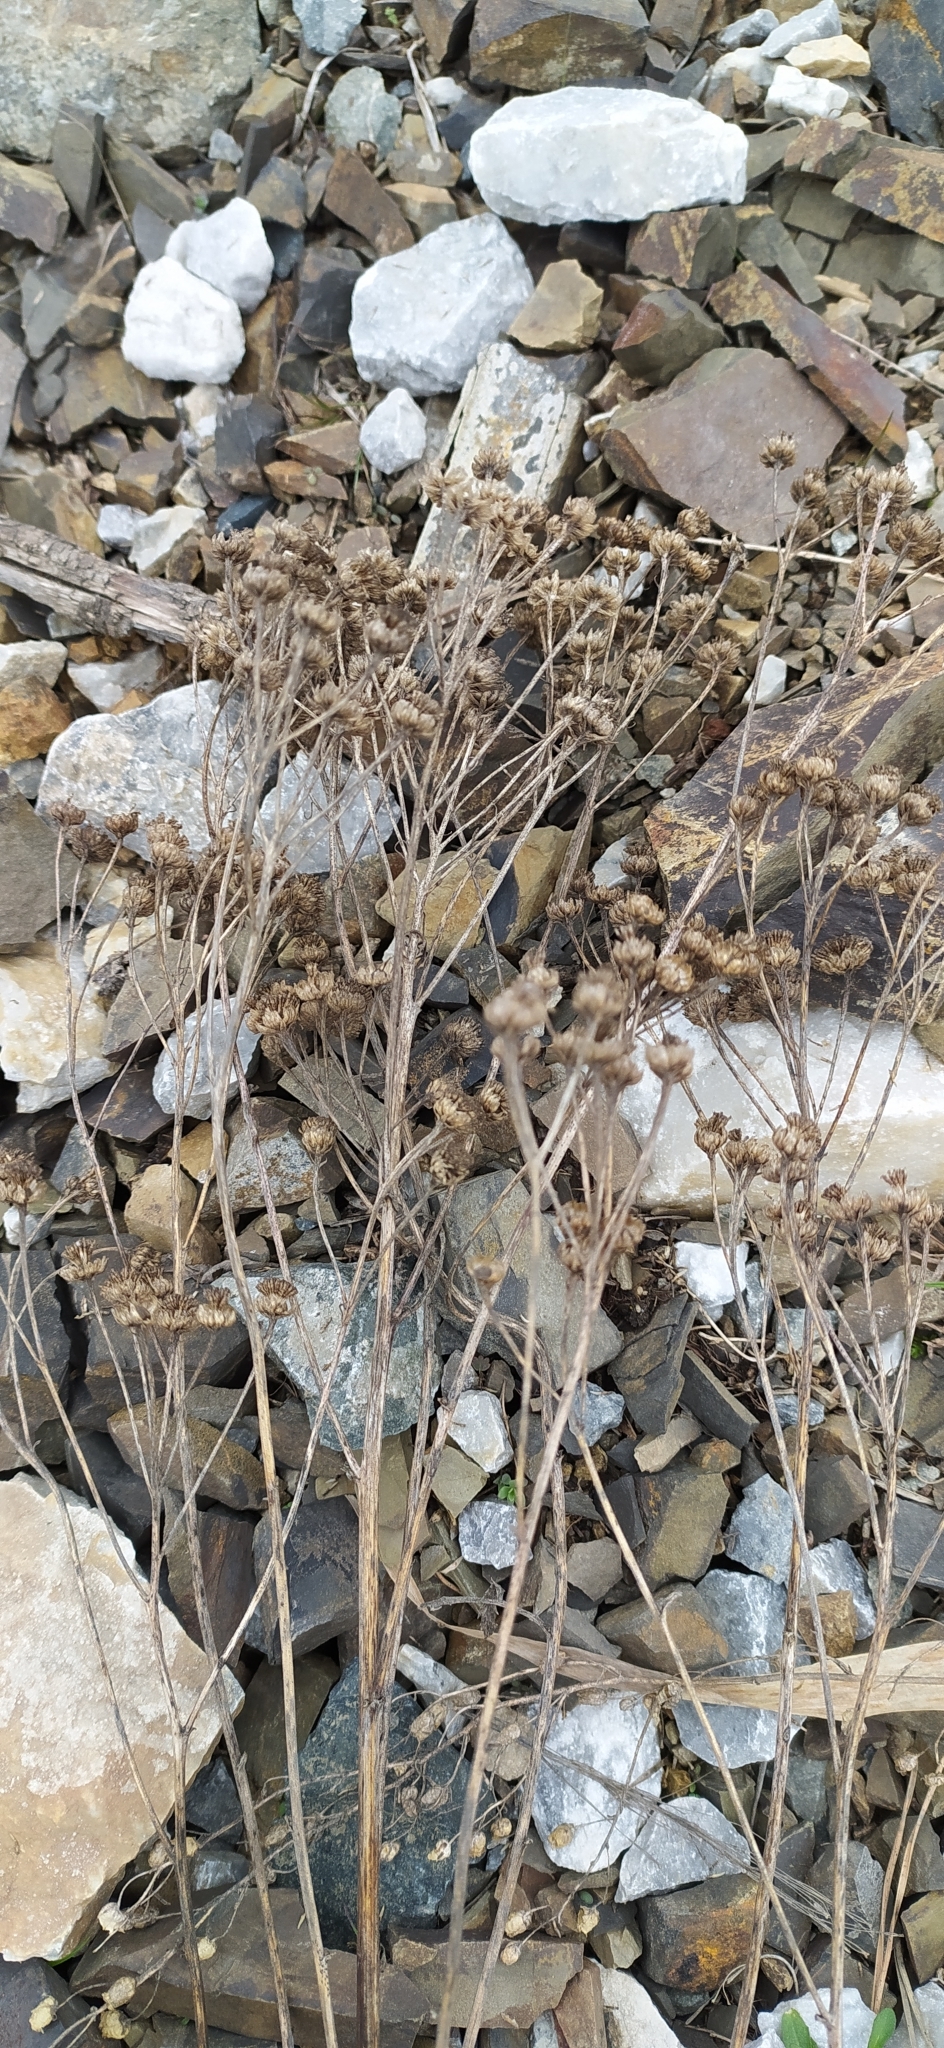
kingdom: Plantae
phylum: Tracheophyta
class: Magnoliopsida
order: Asterales
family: Asteraceae
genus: Tanacetum
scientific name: Tanacetum vulgare
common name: Common tansy
